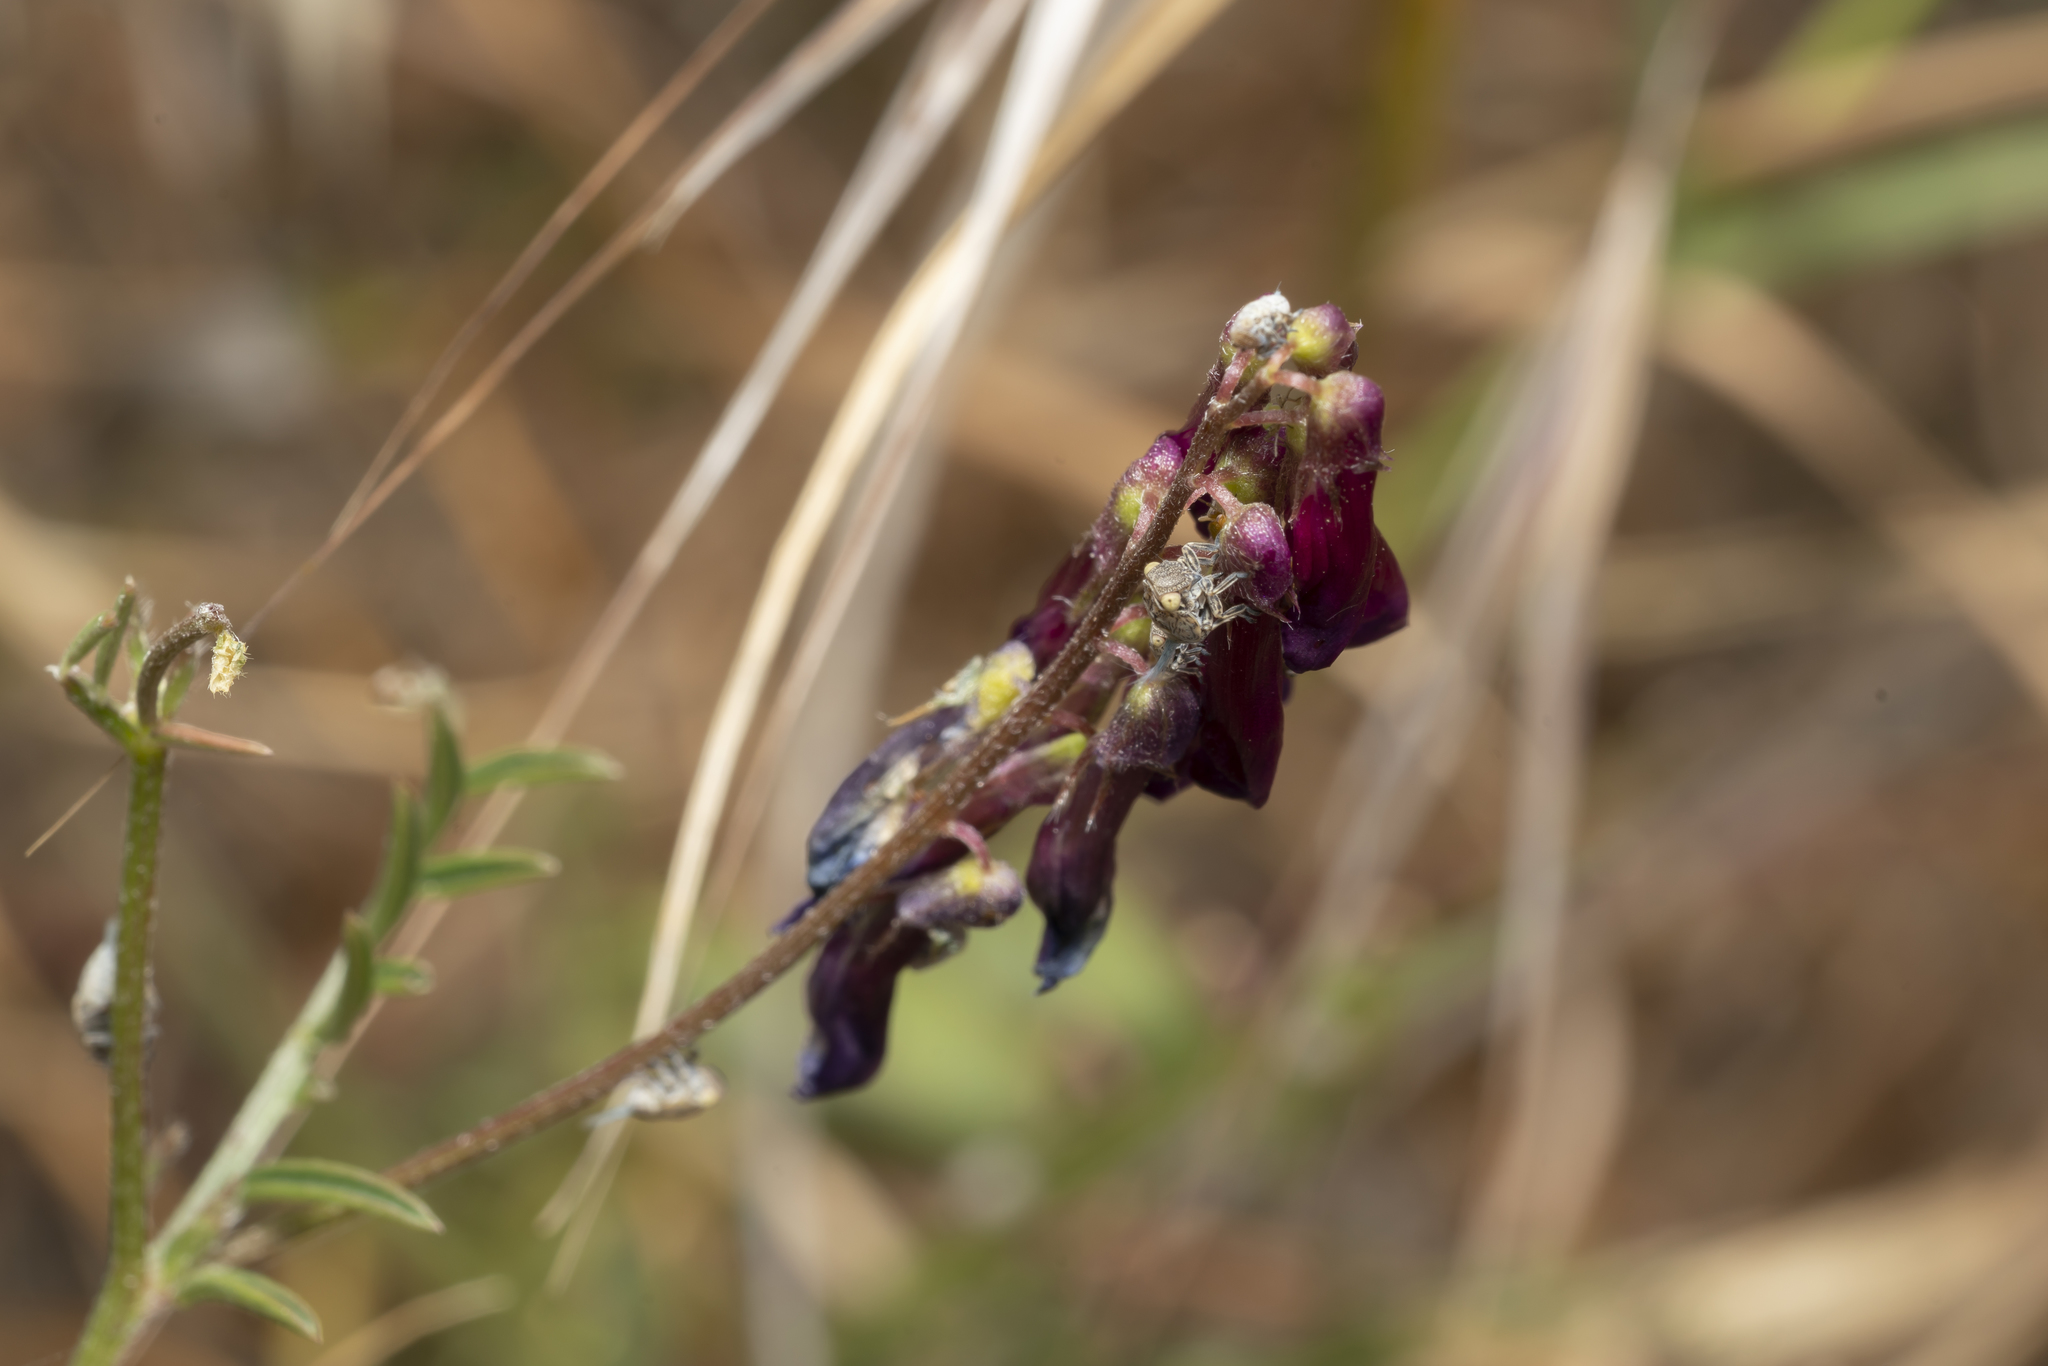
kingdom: Plantae
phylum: Tracheophyta
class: Magnoliopsida
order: Fabales
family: Fabaceae
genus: Vicia
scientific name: Vicia eriocarpa
